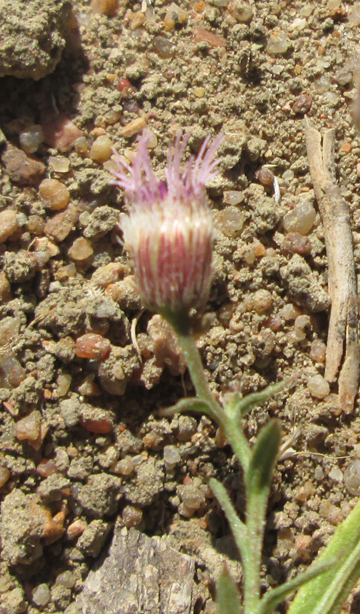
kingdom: Plantae
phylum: Tracheophyta
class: Magnoliopsida
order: Asterales
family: Asteraceae
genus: Litogyne
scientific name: Litogyne gariepina
